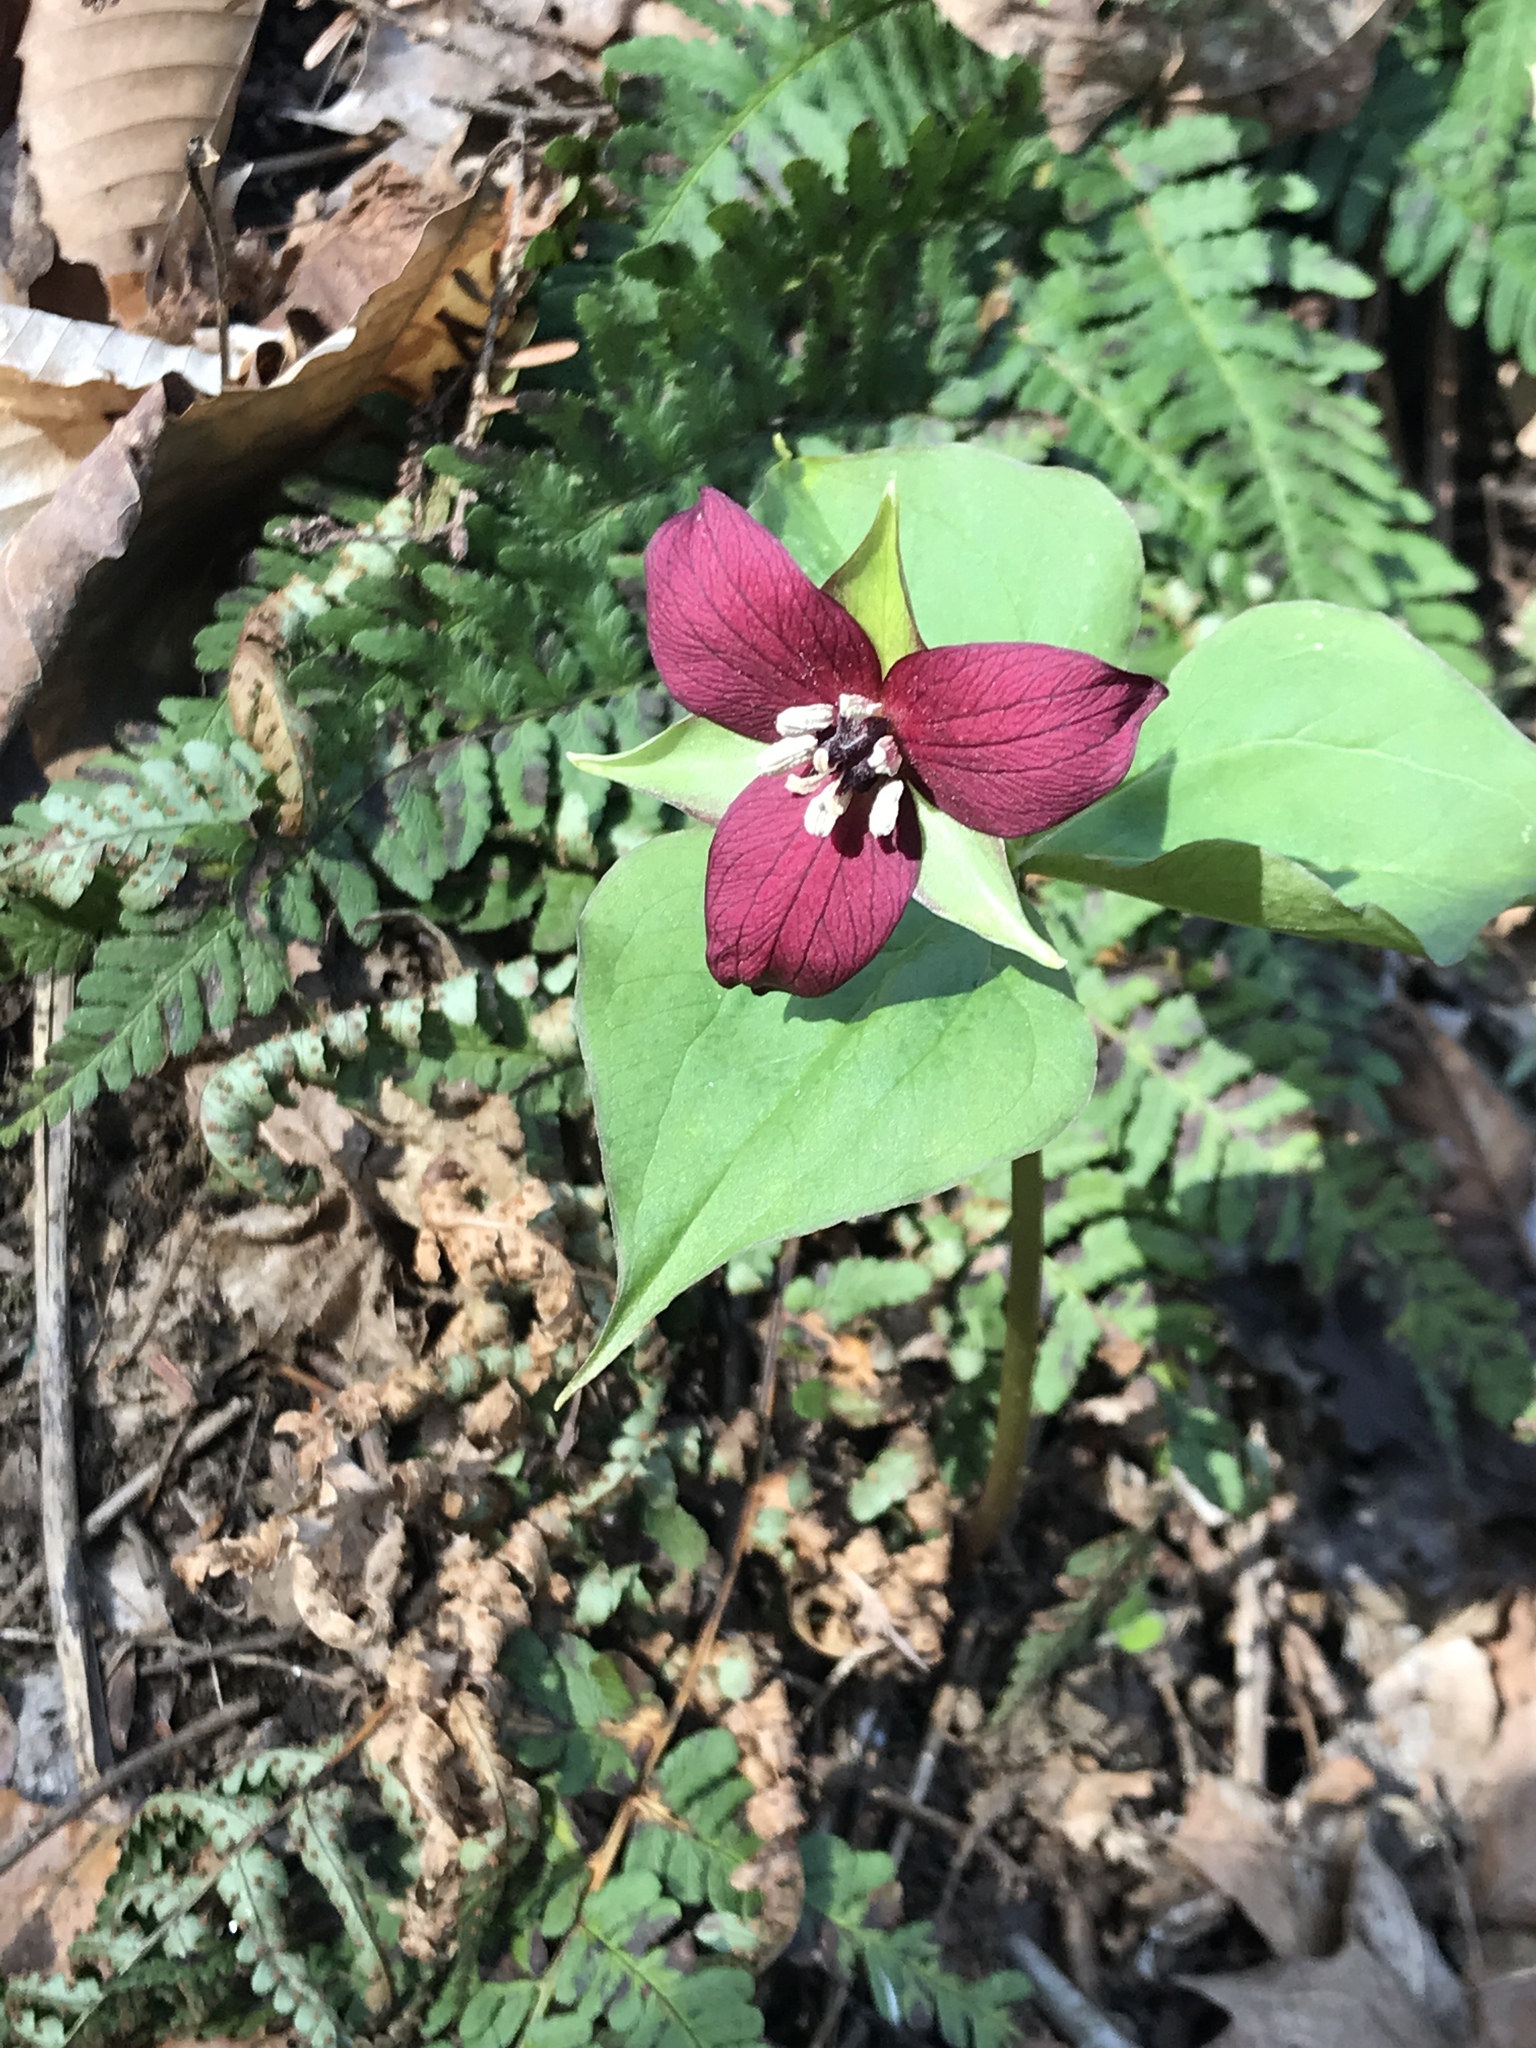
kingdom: Plantae
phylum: Tracheophyta
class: Liliopsida
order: Liliales
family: Melanthiaceae
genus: Trillium
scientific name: Trillium erectum
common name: Purple trillium
